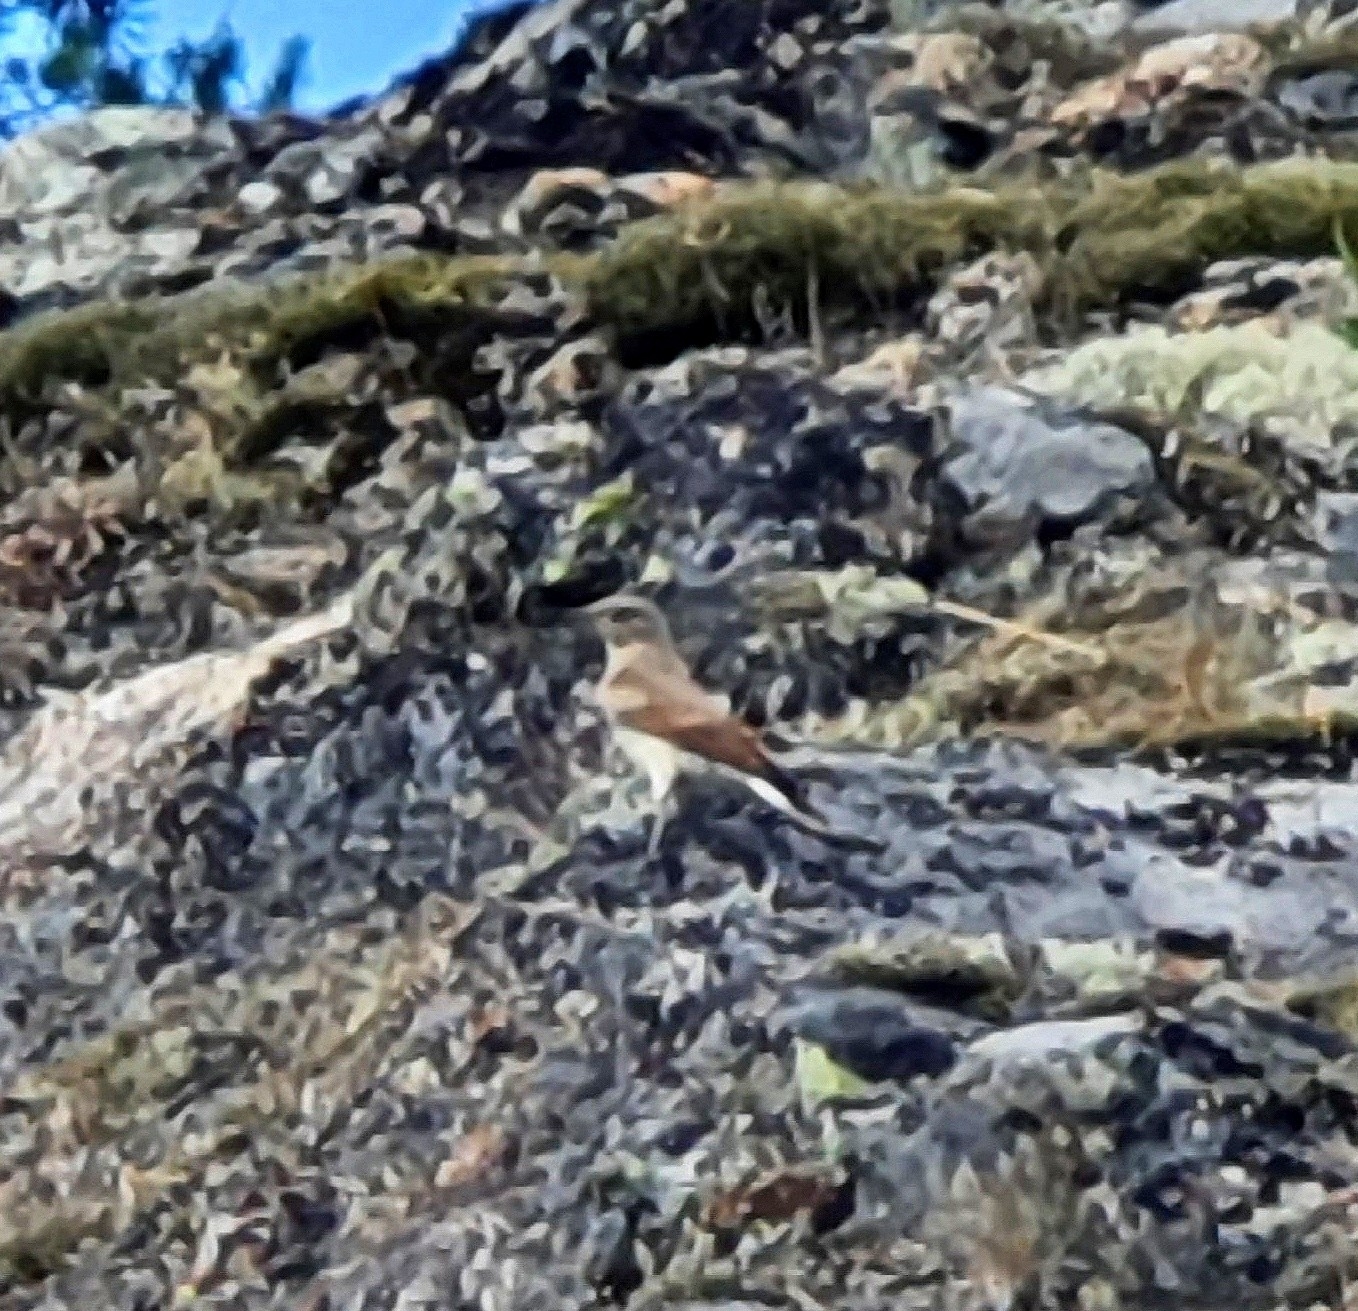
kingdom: Animalia
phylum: Chordata
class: Aves
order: Passeriformes
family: Muscicapidae
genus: Oenanthe
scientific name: Oenanthe oenanthe
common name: Northern wheatear
